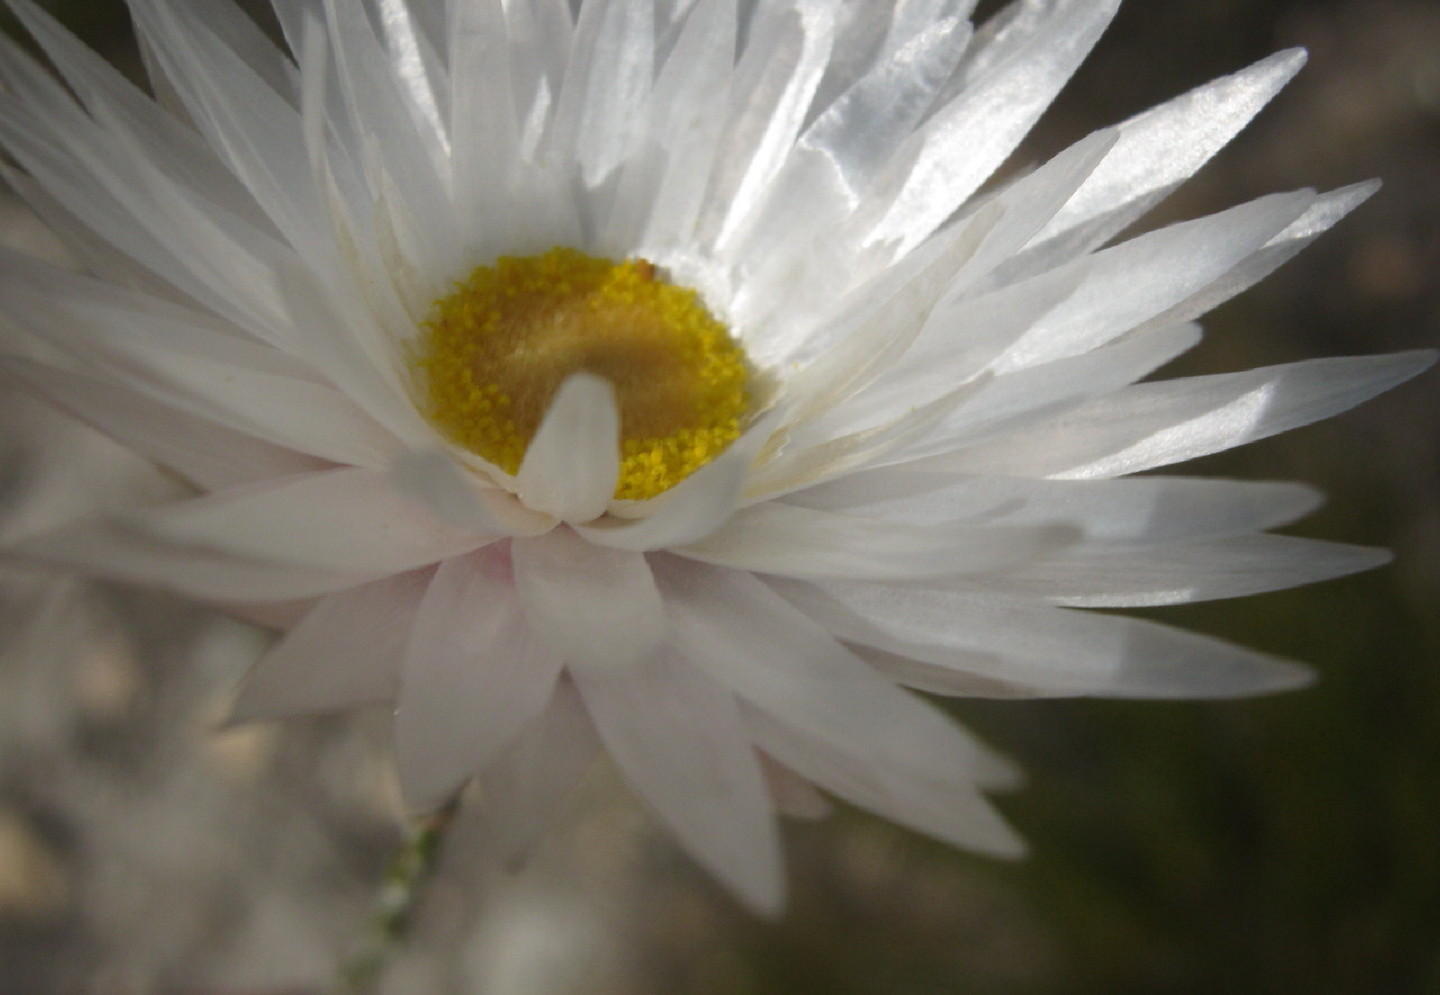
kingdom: Plantae
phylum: Tracheophyta
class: Magnoliopsida
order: Asterales
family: Asteraceae
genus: Edmondia
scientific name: Edmondia sesamoides
